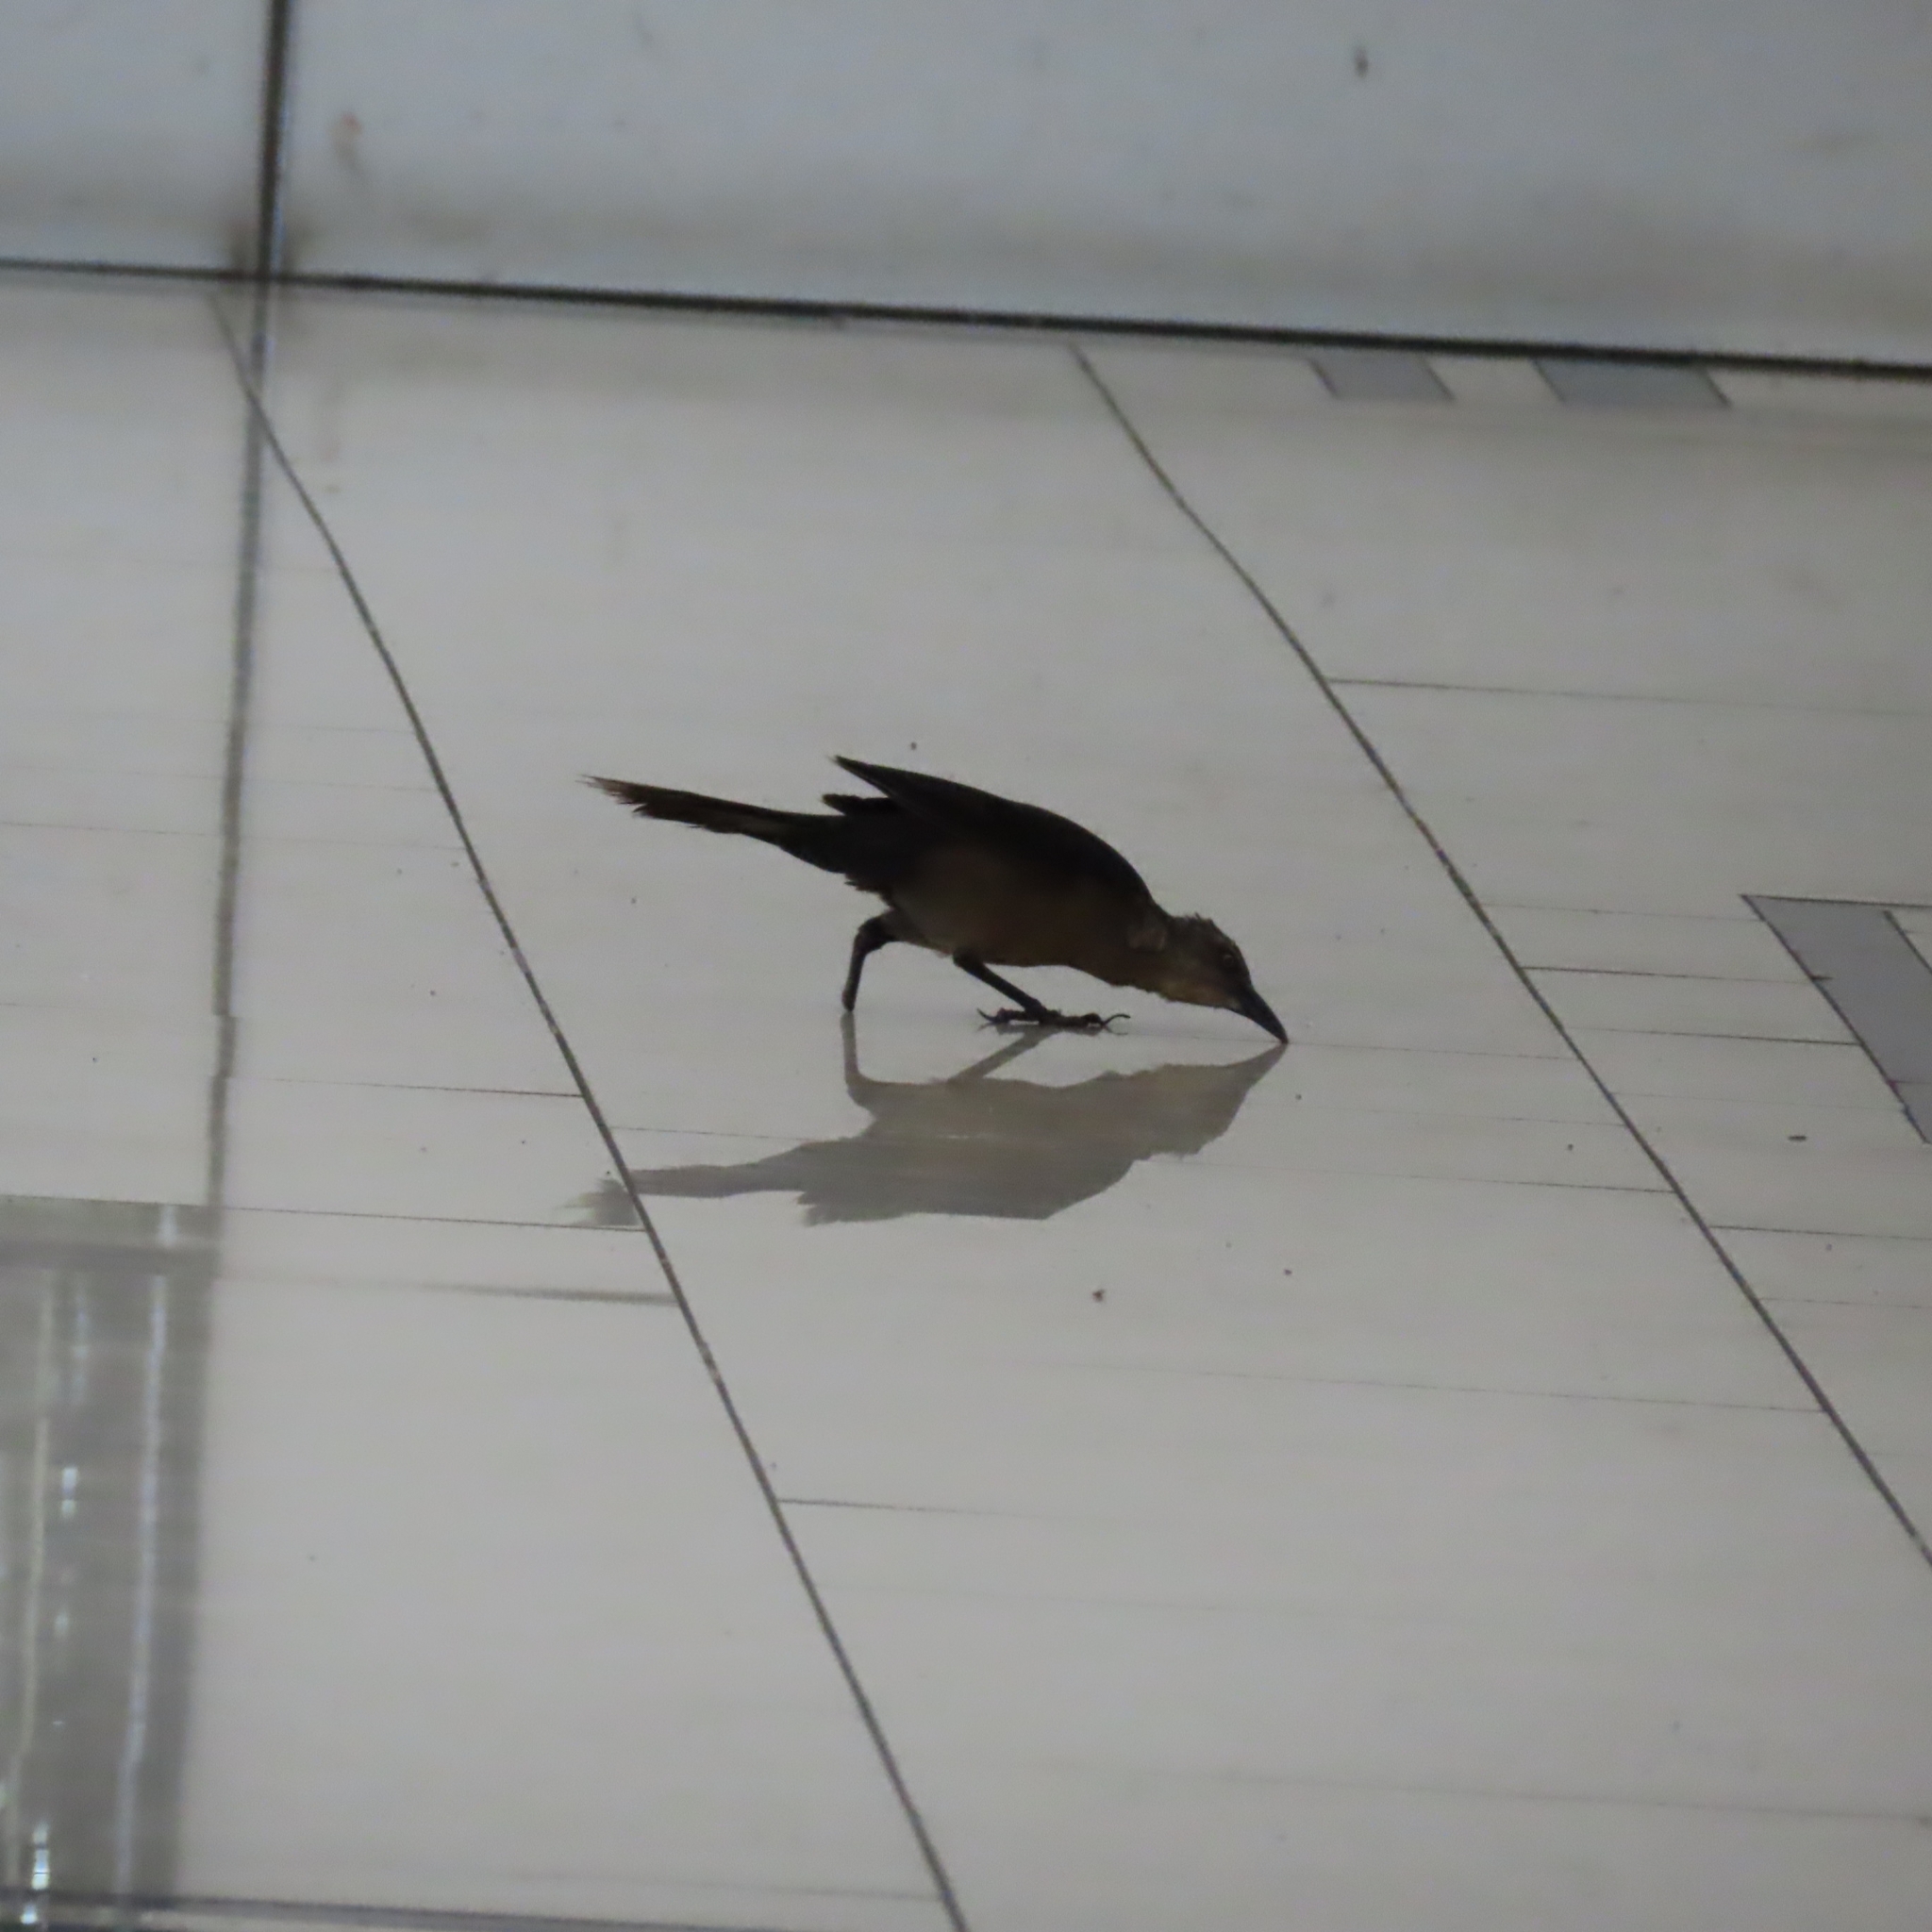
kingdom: Animalia
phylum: Chordata
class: Aves
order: Passeriformes
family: Icteridae
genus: Quiscalus
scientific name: Quiscalus mexicanus
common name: Great-tailed grackle
